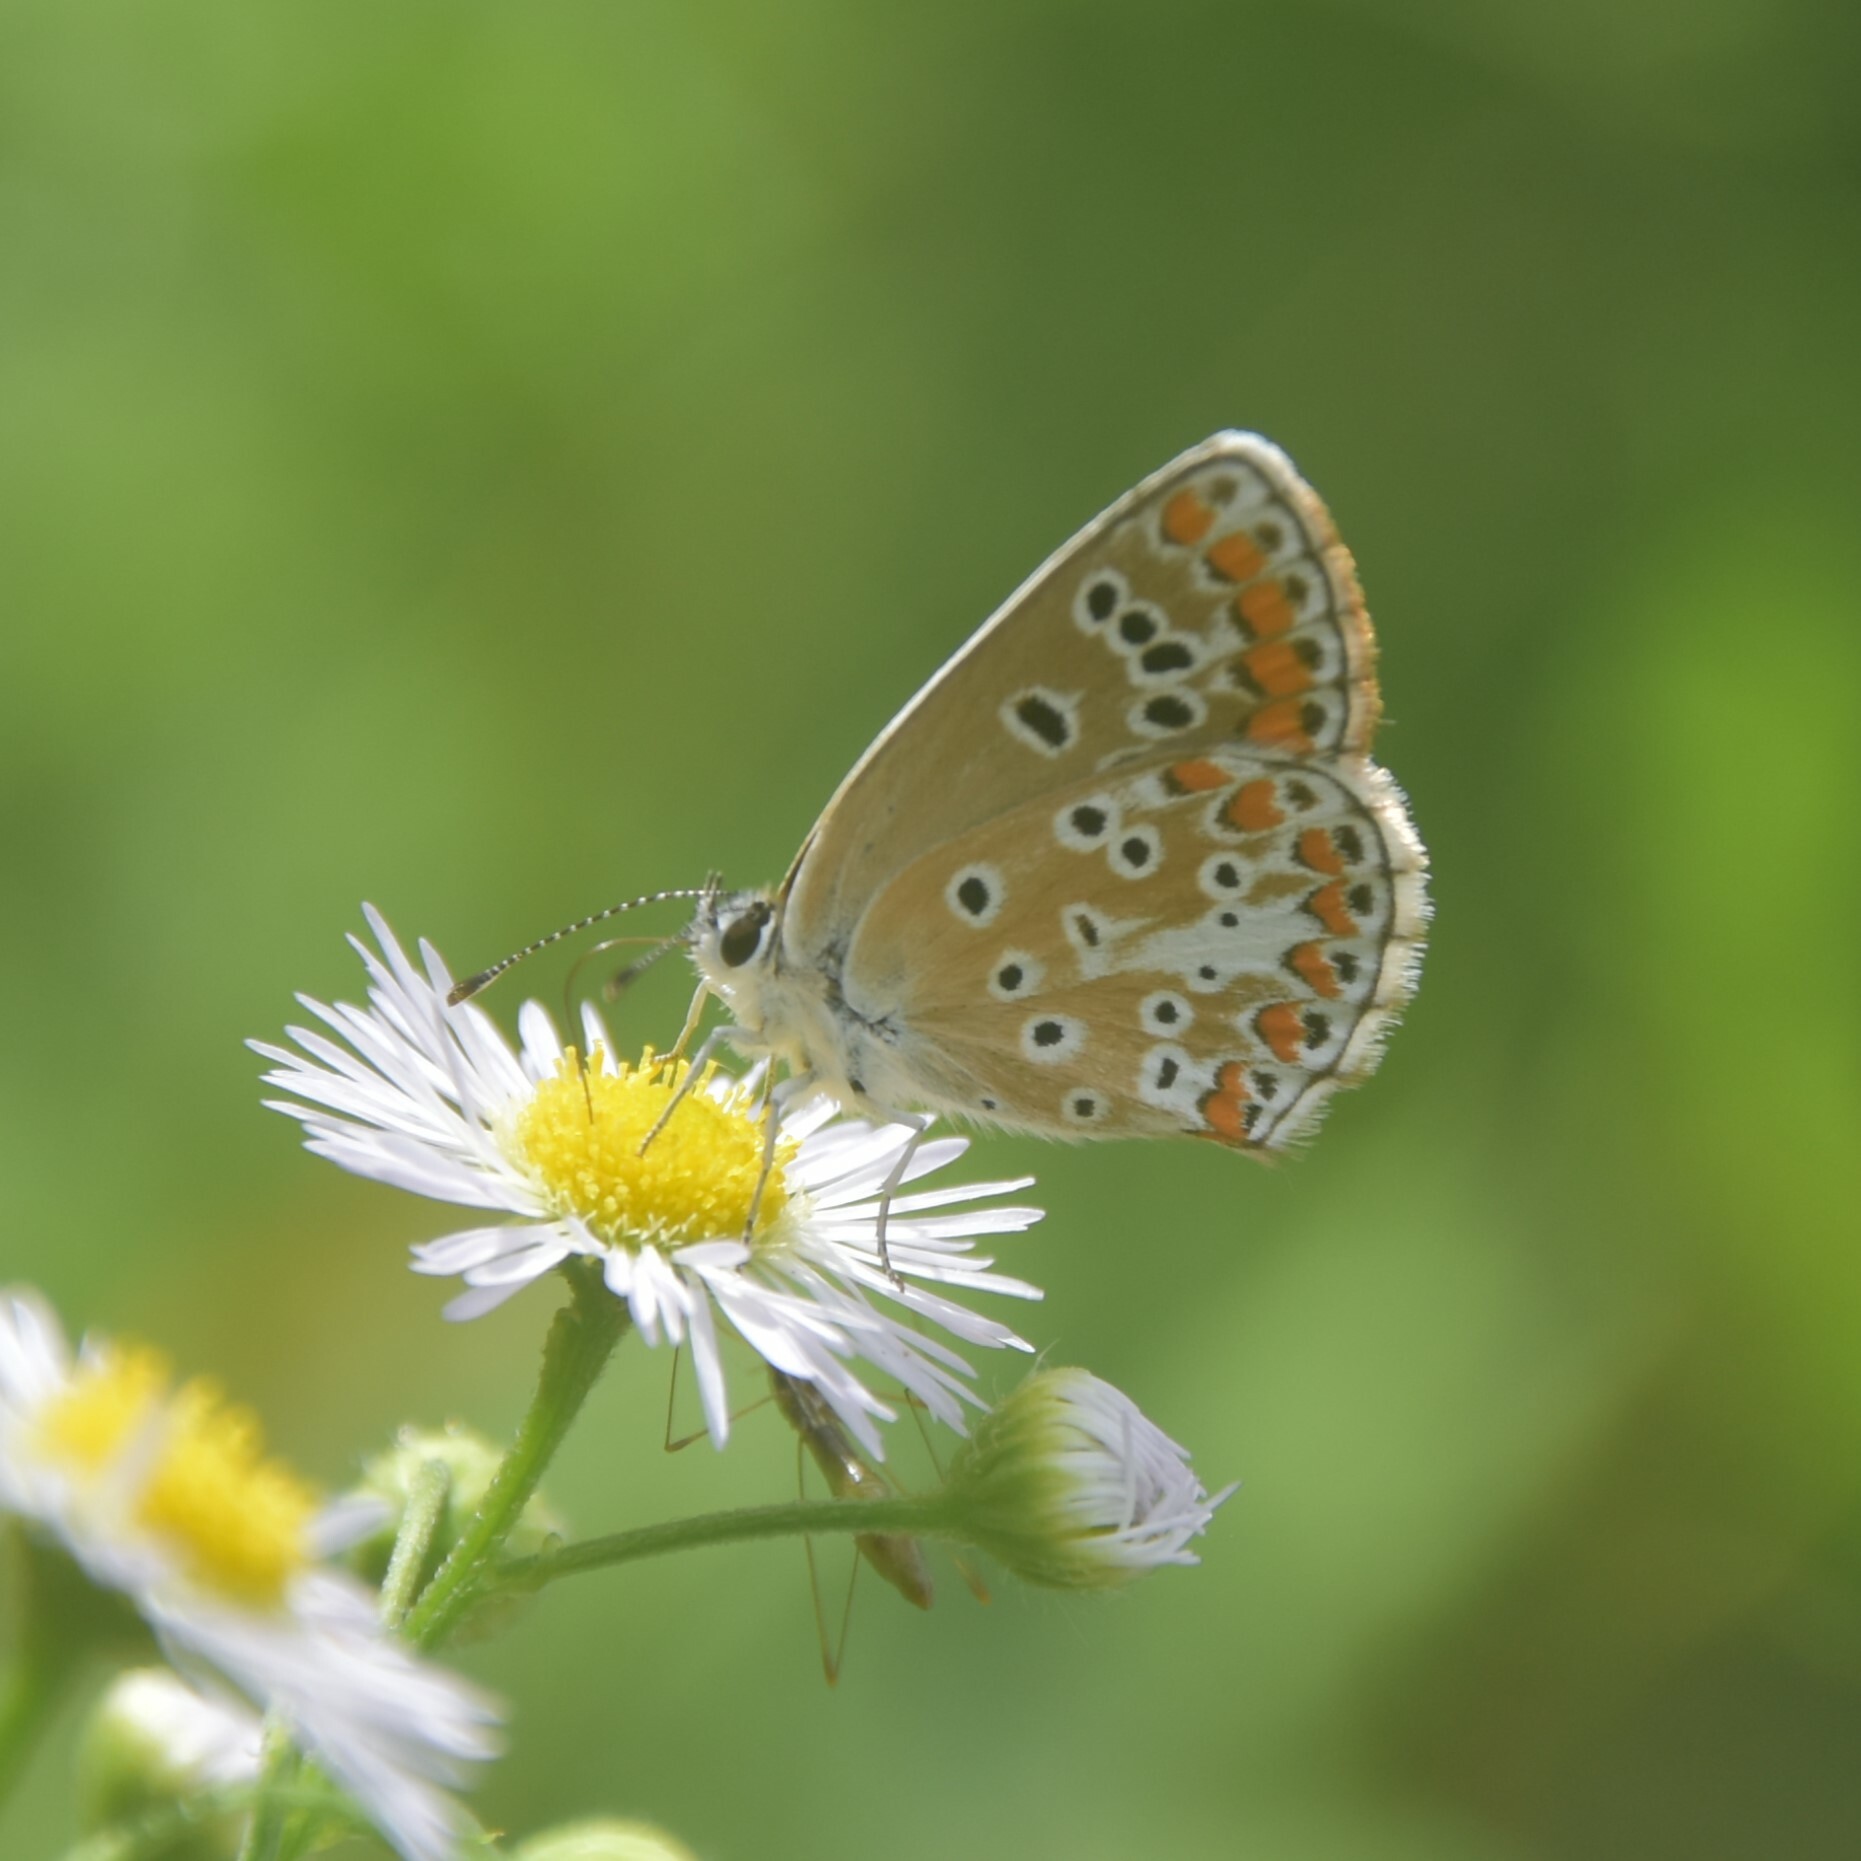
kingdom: Animalia
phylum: Arthropoda
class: Insecta
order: Lepidoptera
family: Lycaenidae
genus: Aricia
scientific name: Aricia agestis
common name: Brown argus
